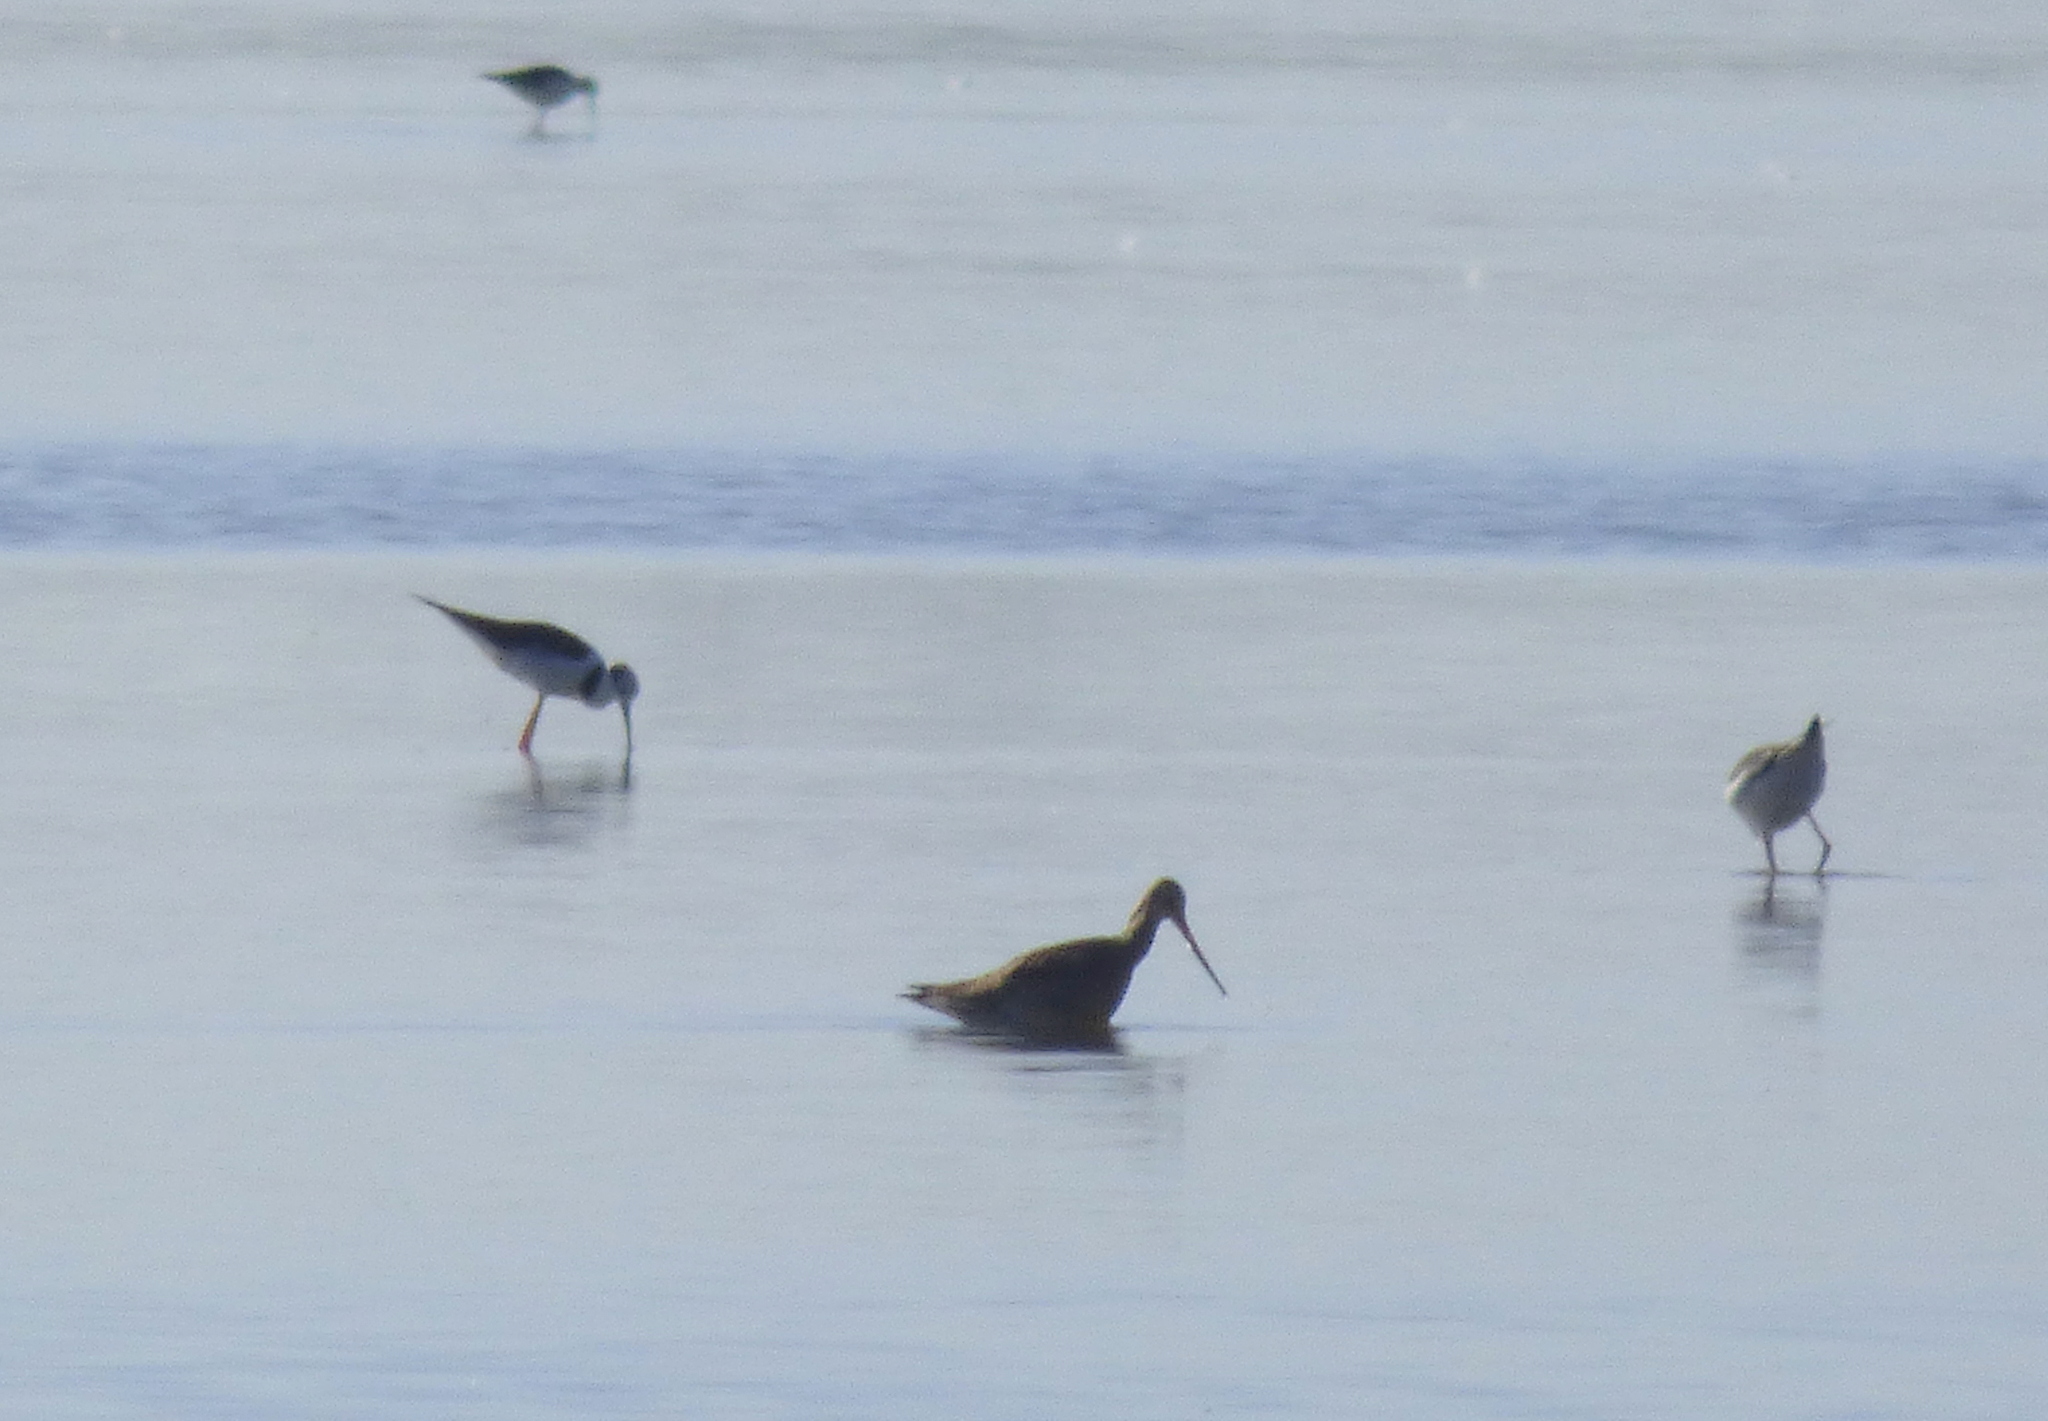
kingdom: Animalia
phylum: Chordata
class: Aves
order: Charadriiformes
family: Scolopacidae
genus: Limosa
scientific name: Limosa haemastica
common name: Hudsonian godwit
